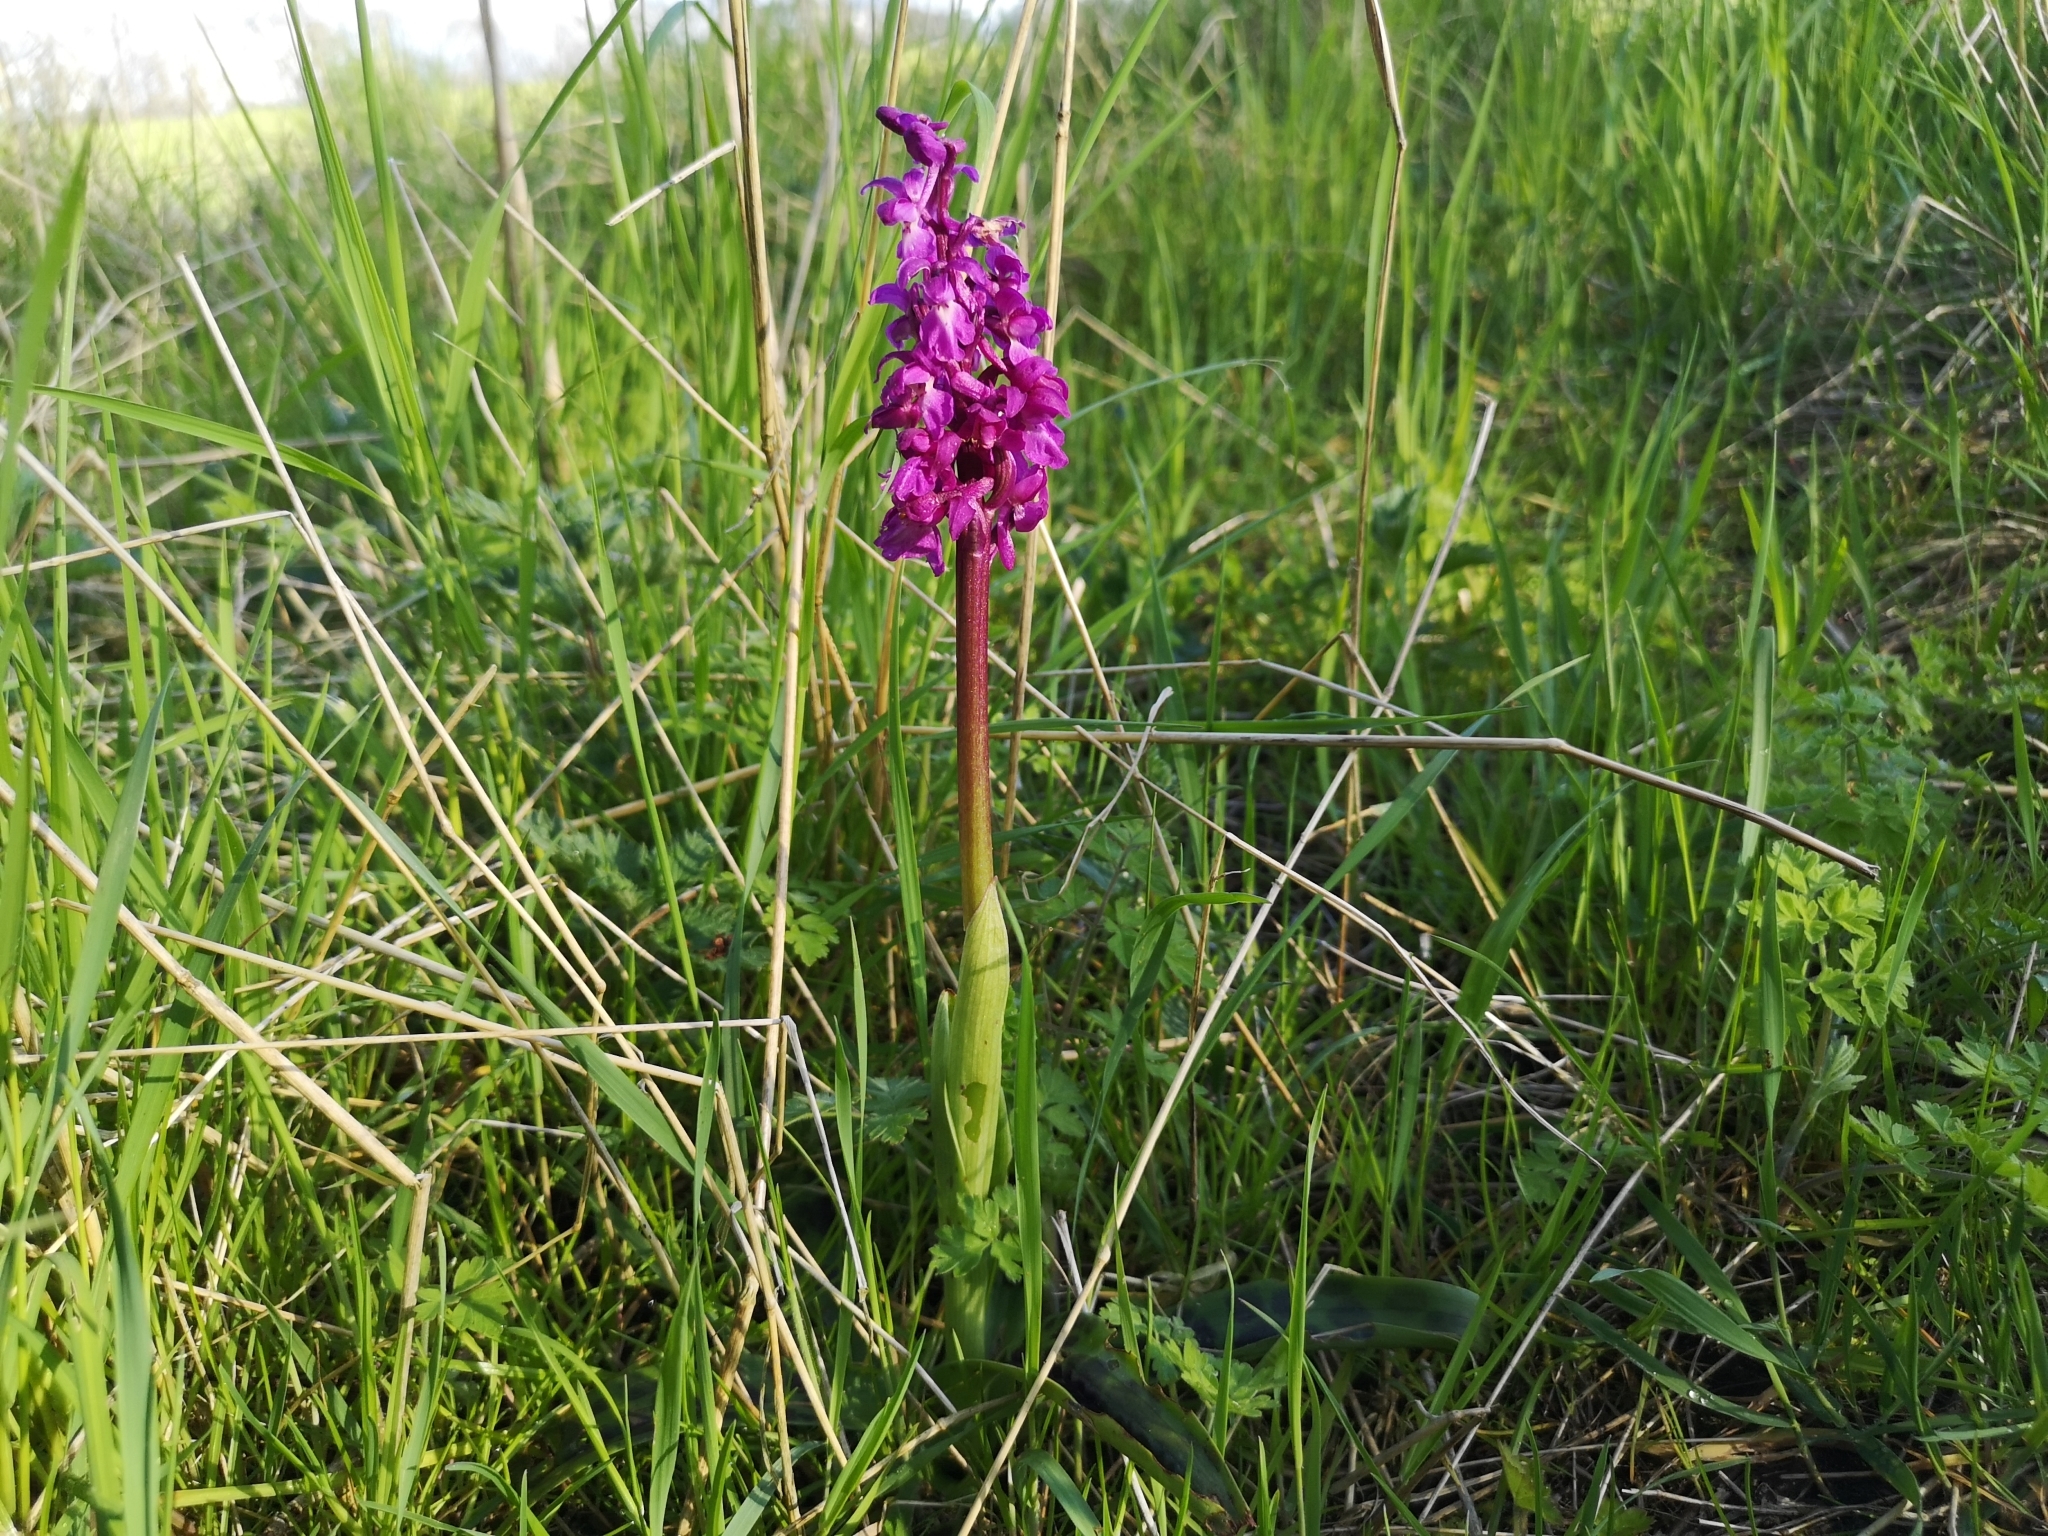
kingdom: Plantae
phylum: Tracheophyta
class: Liliopsida
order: Asparagales
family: Orchidaceae
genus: Orchis
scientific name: Orchis mascula
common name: Early-purple orchid
